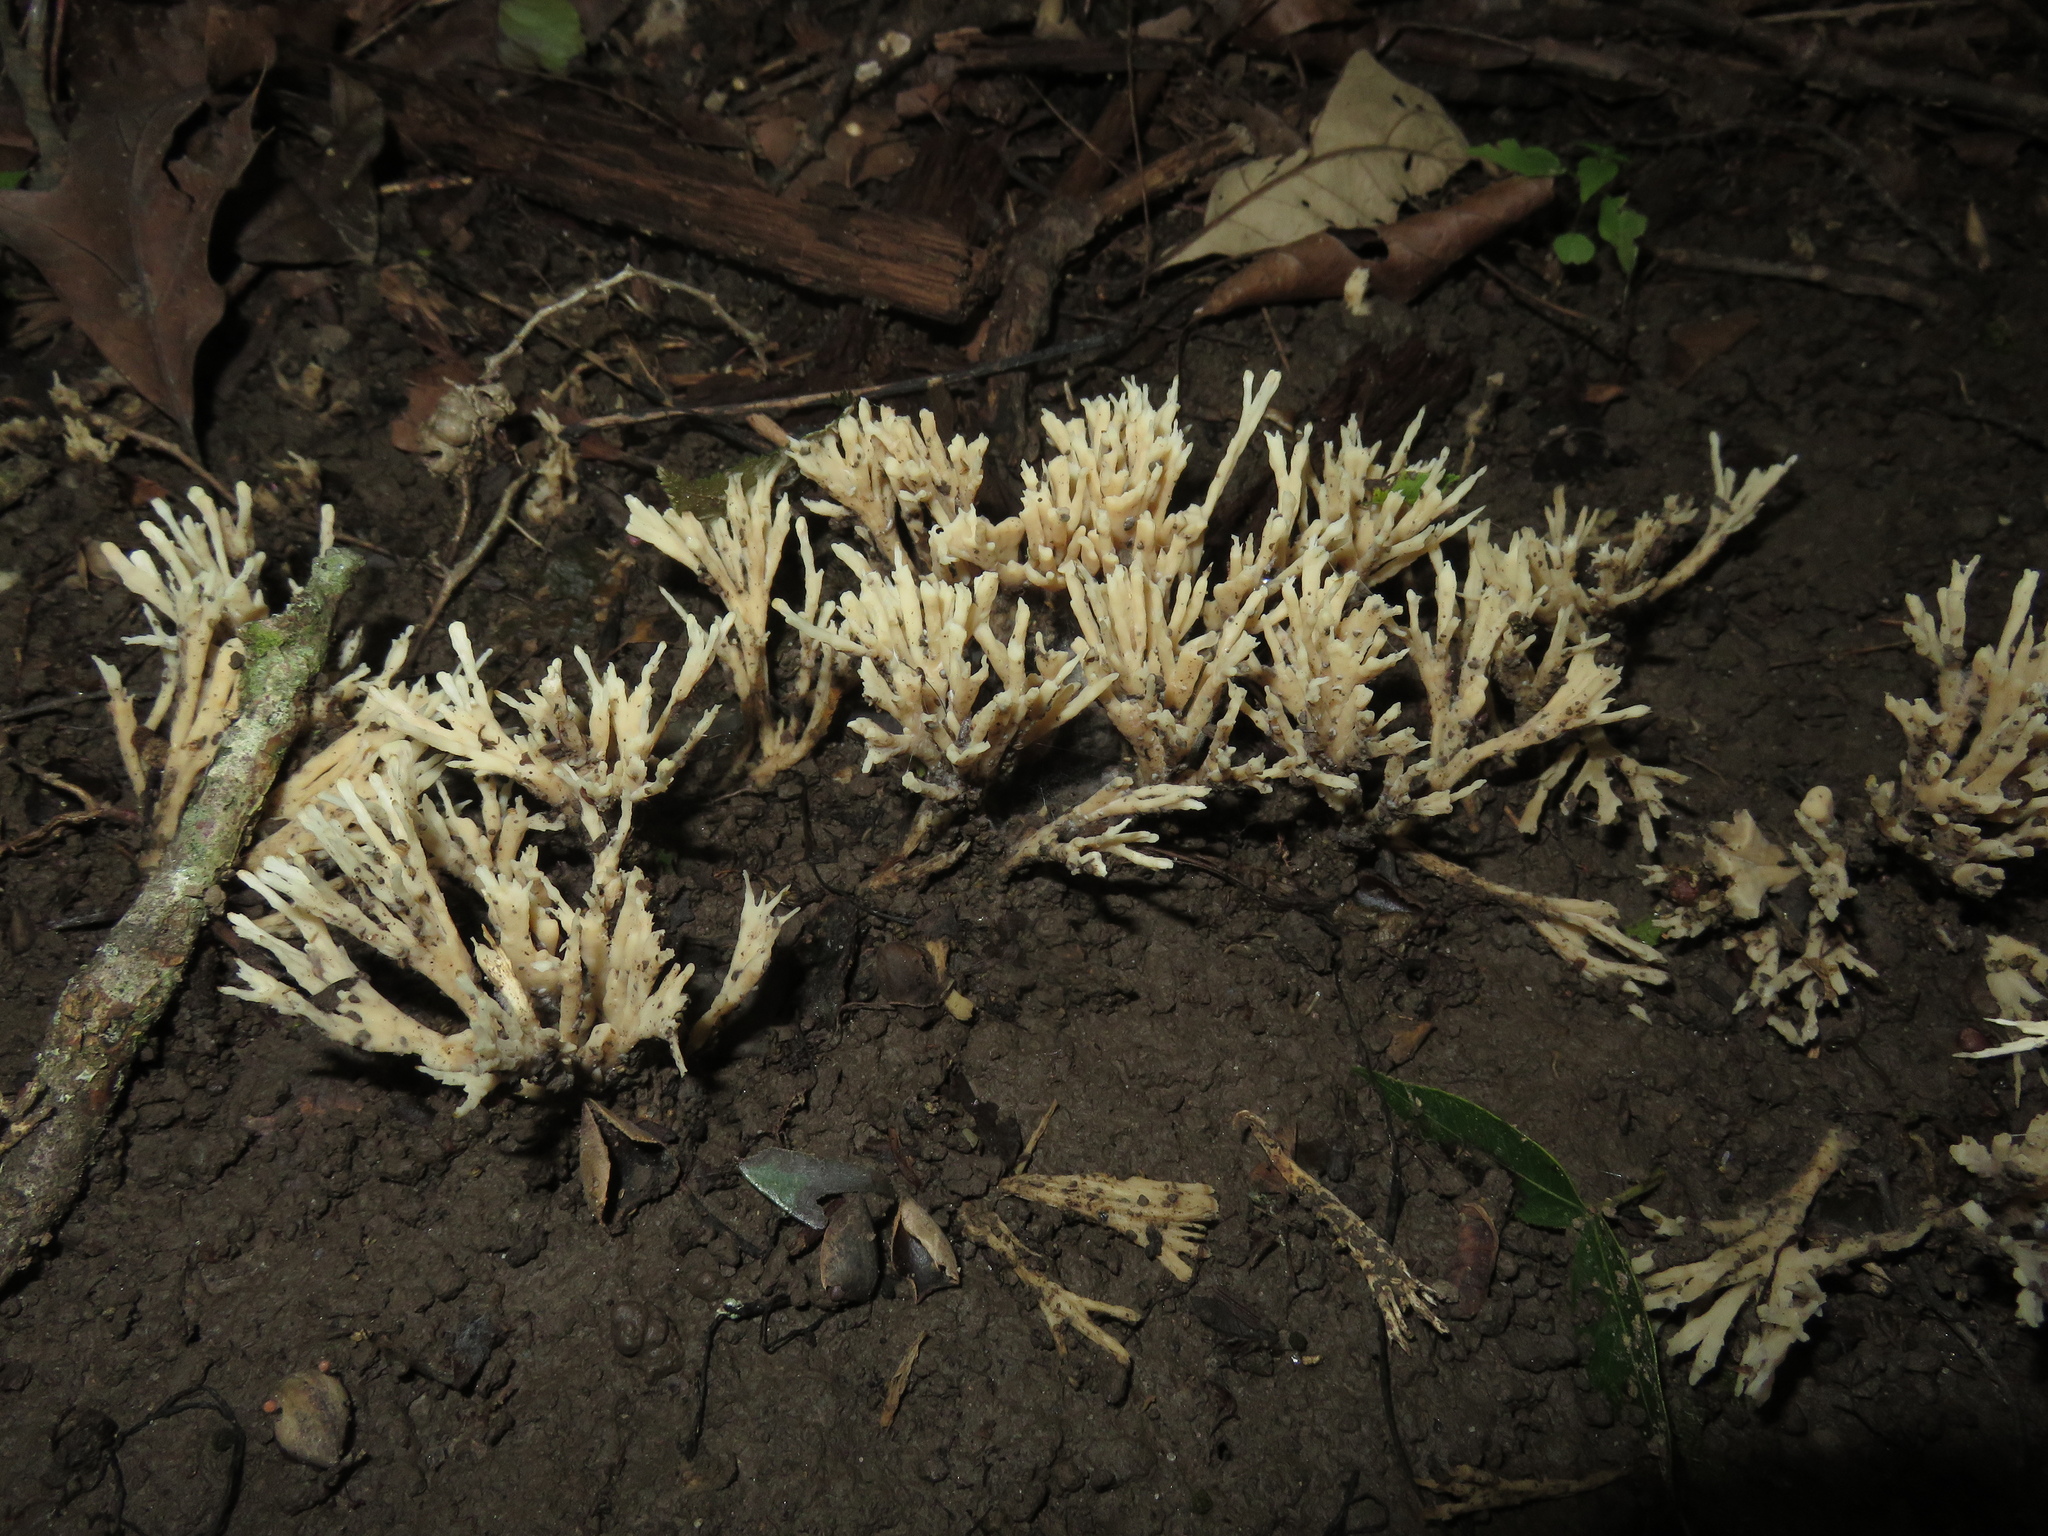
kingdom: Fungi
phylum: Basidiomycota
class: Agaricomycetes
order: Sebacinales
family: Sebacinaceae
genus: Sebacina
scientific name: Sebacina schweinitzii
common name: Jellied false coral fungus
